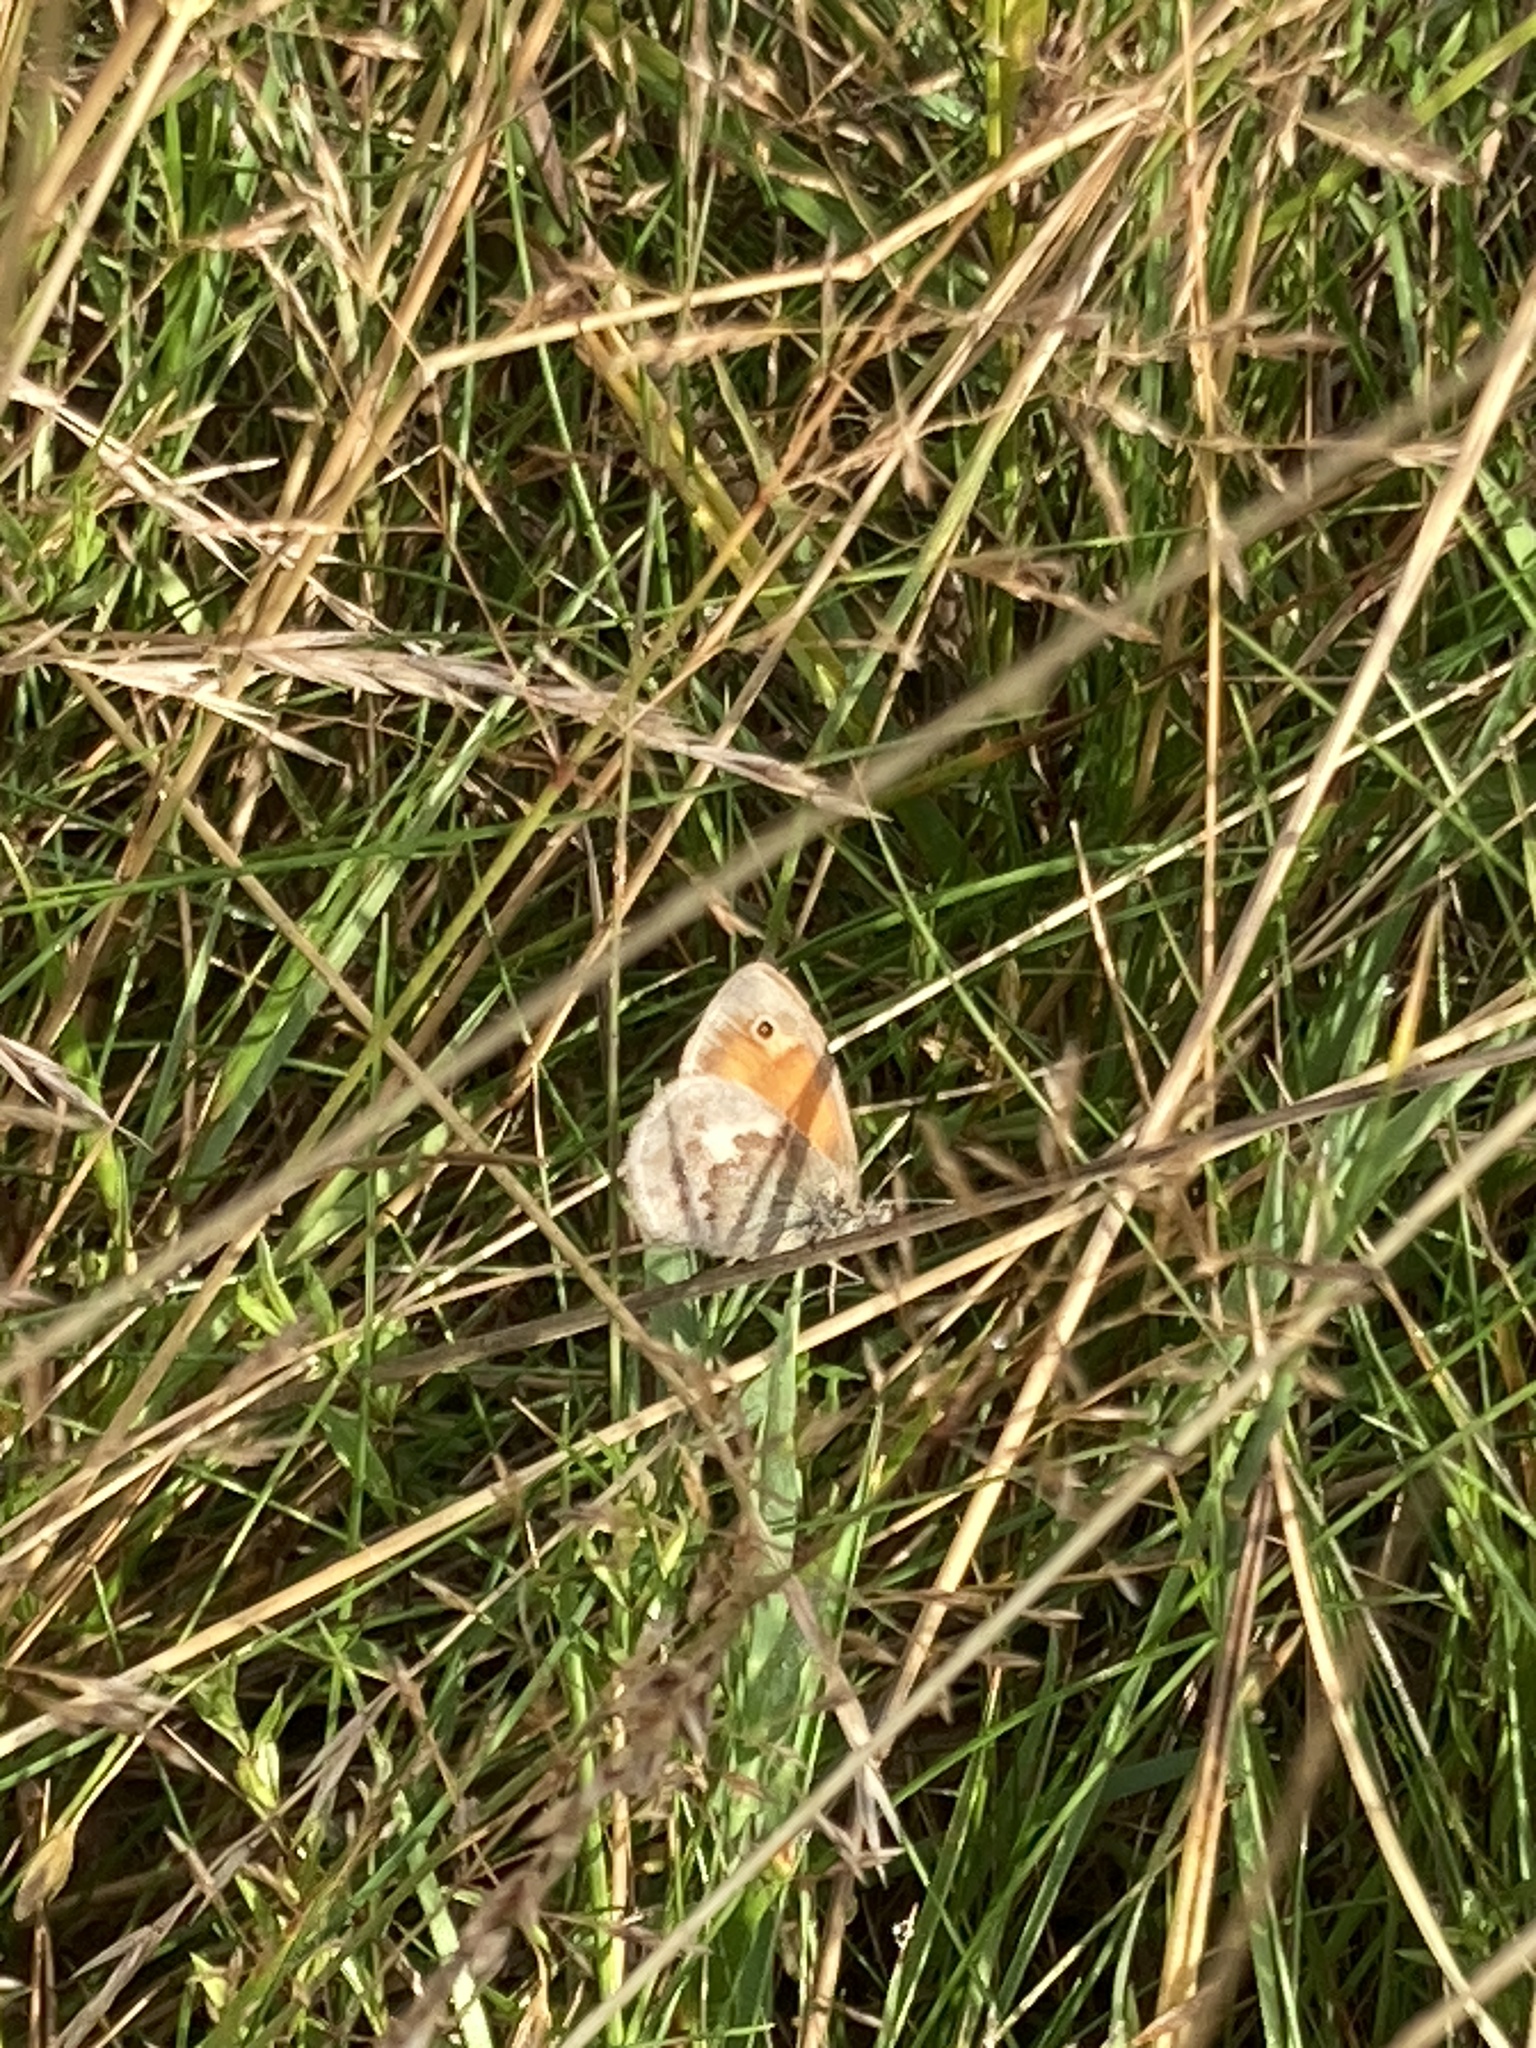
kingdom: Animalia
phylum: Arthropoda
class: Insecta
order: Lepidoptera
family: Nymphalidae
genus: Coenonympha
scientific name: Coenonympha pamphilus
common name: Small heath
